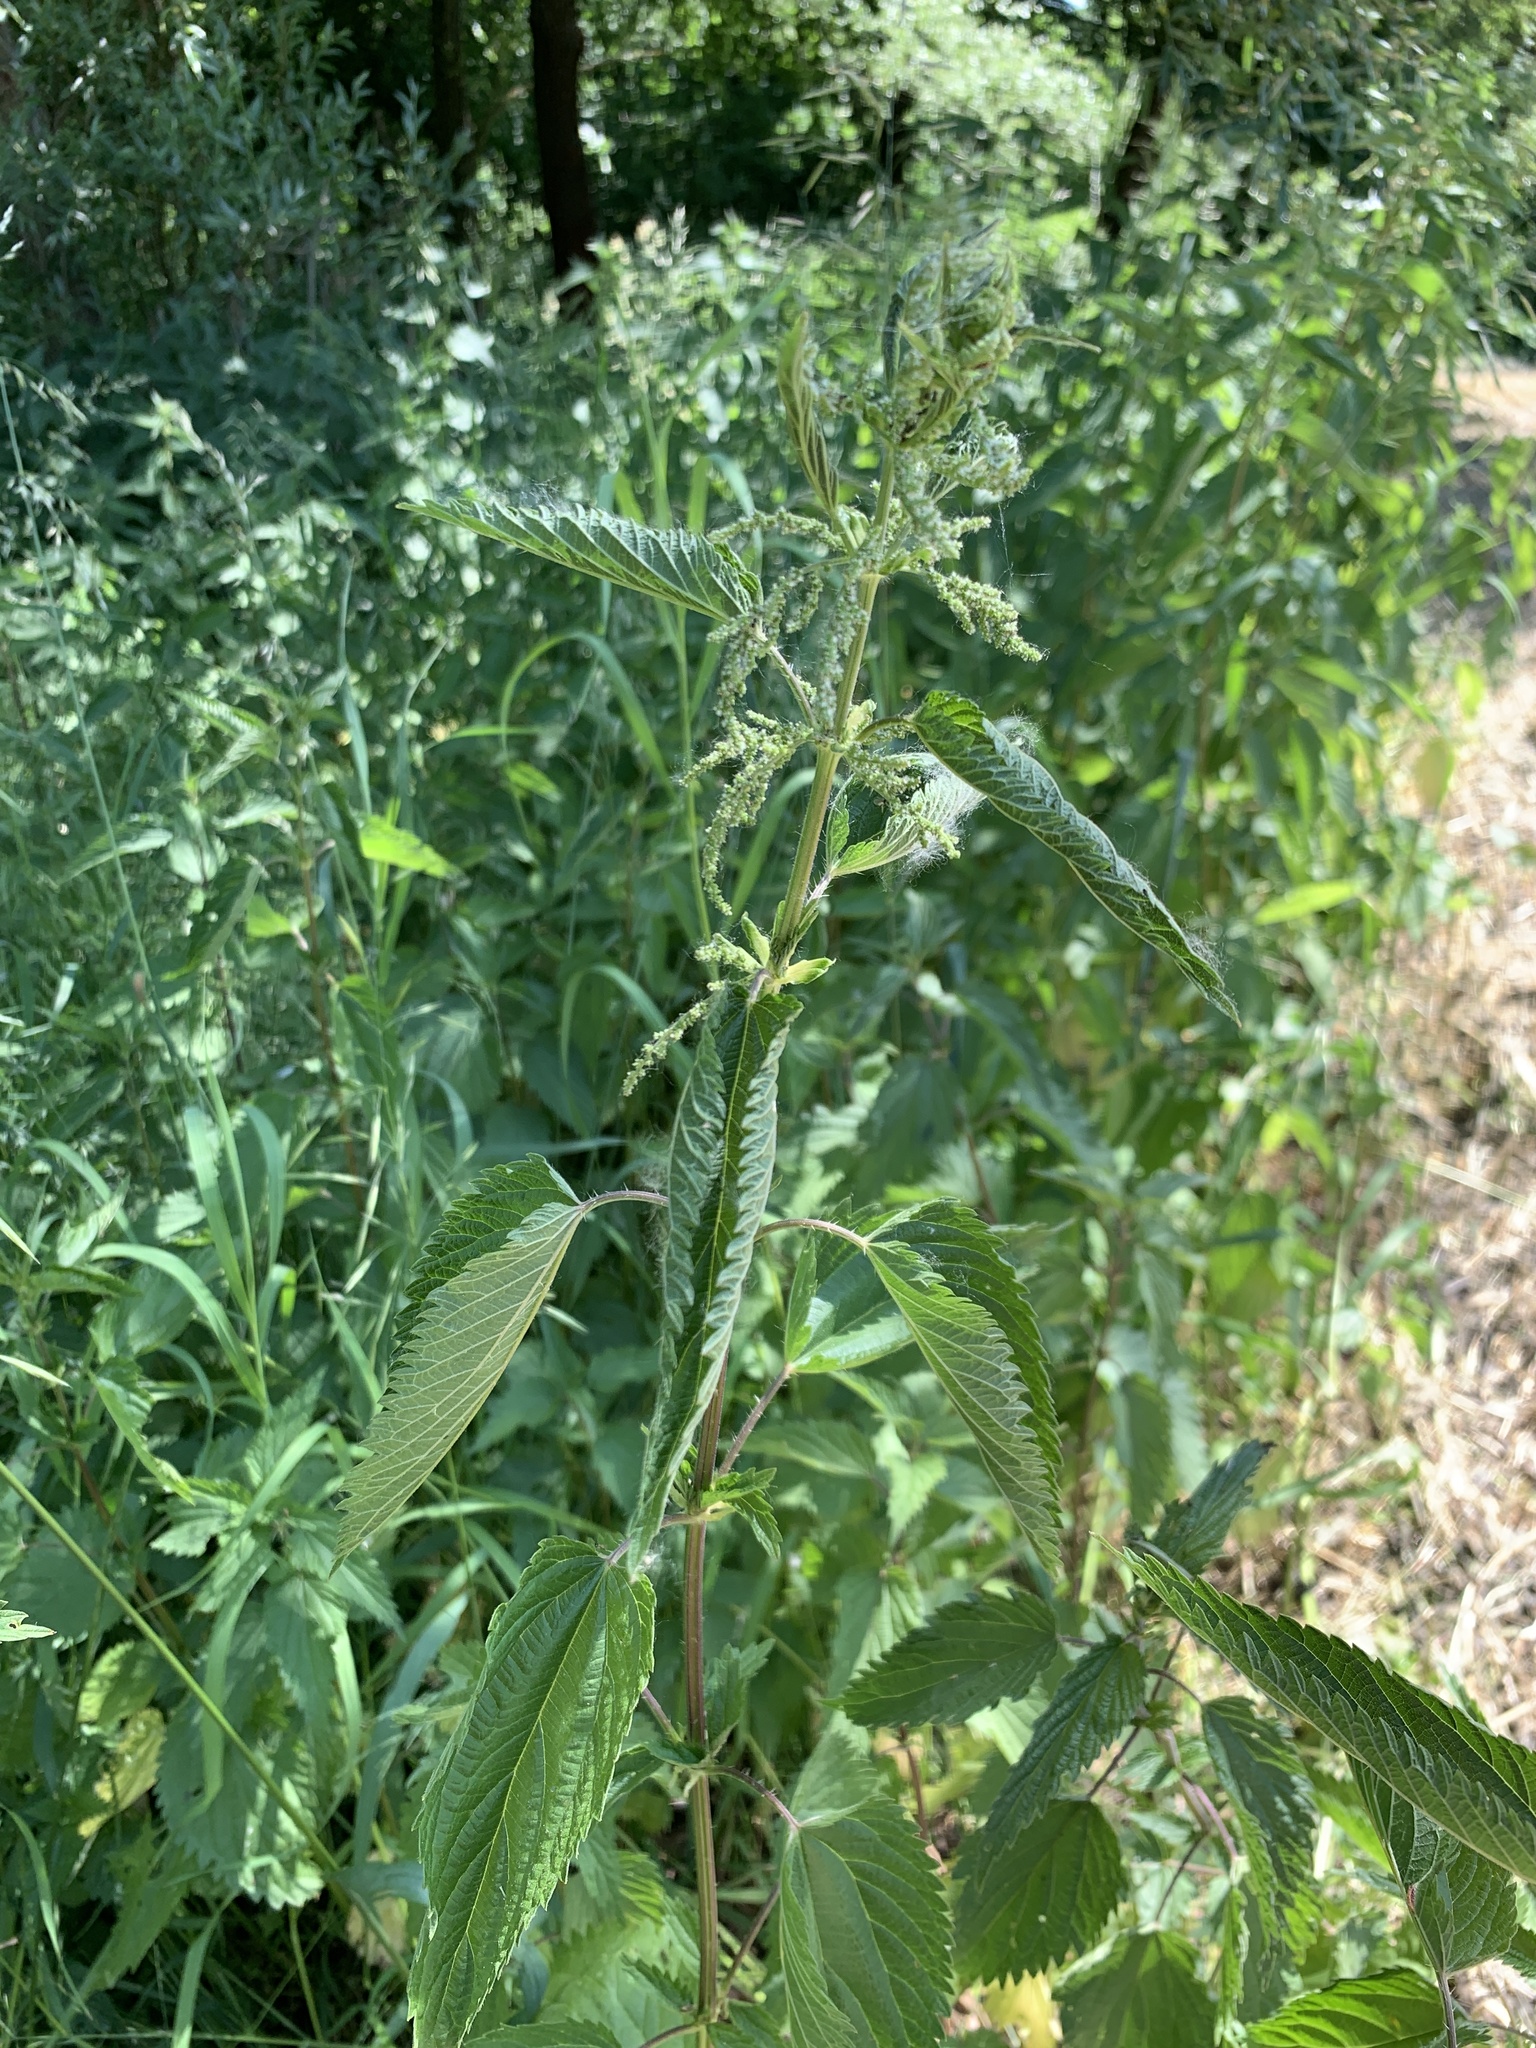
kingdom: Plantae
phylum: Tracheophyta
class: Magnoliopsida
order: Rosales
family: Urticaceae
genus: Urtica
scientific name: Urtica dioica
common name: Common nettle
